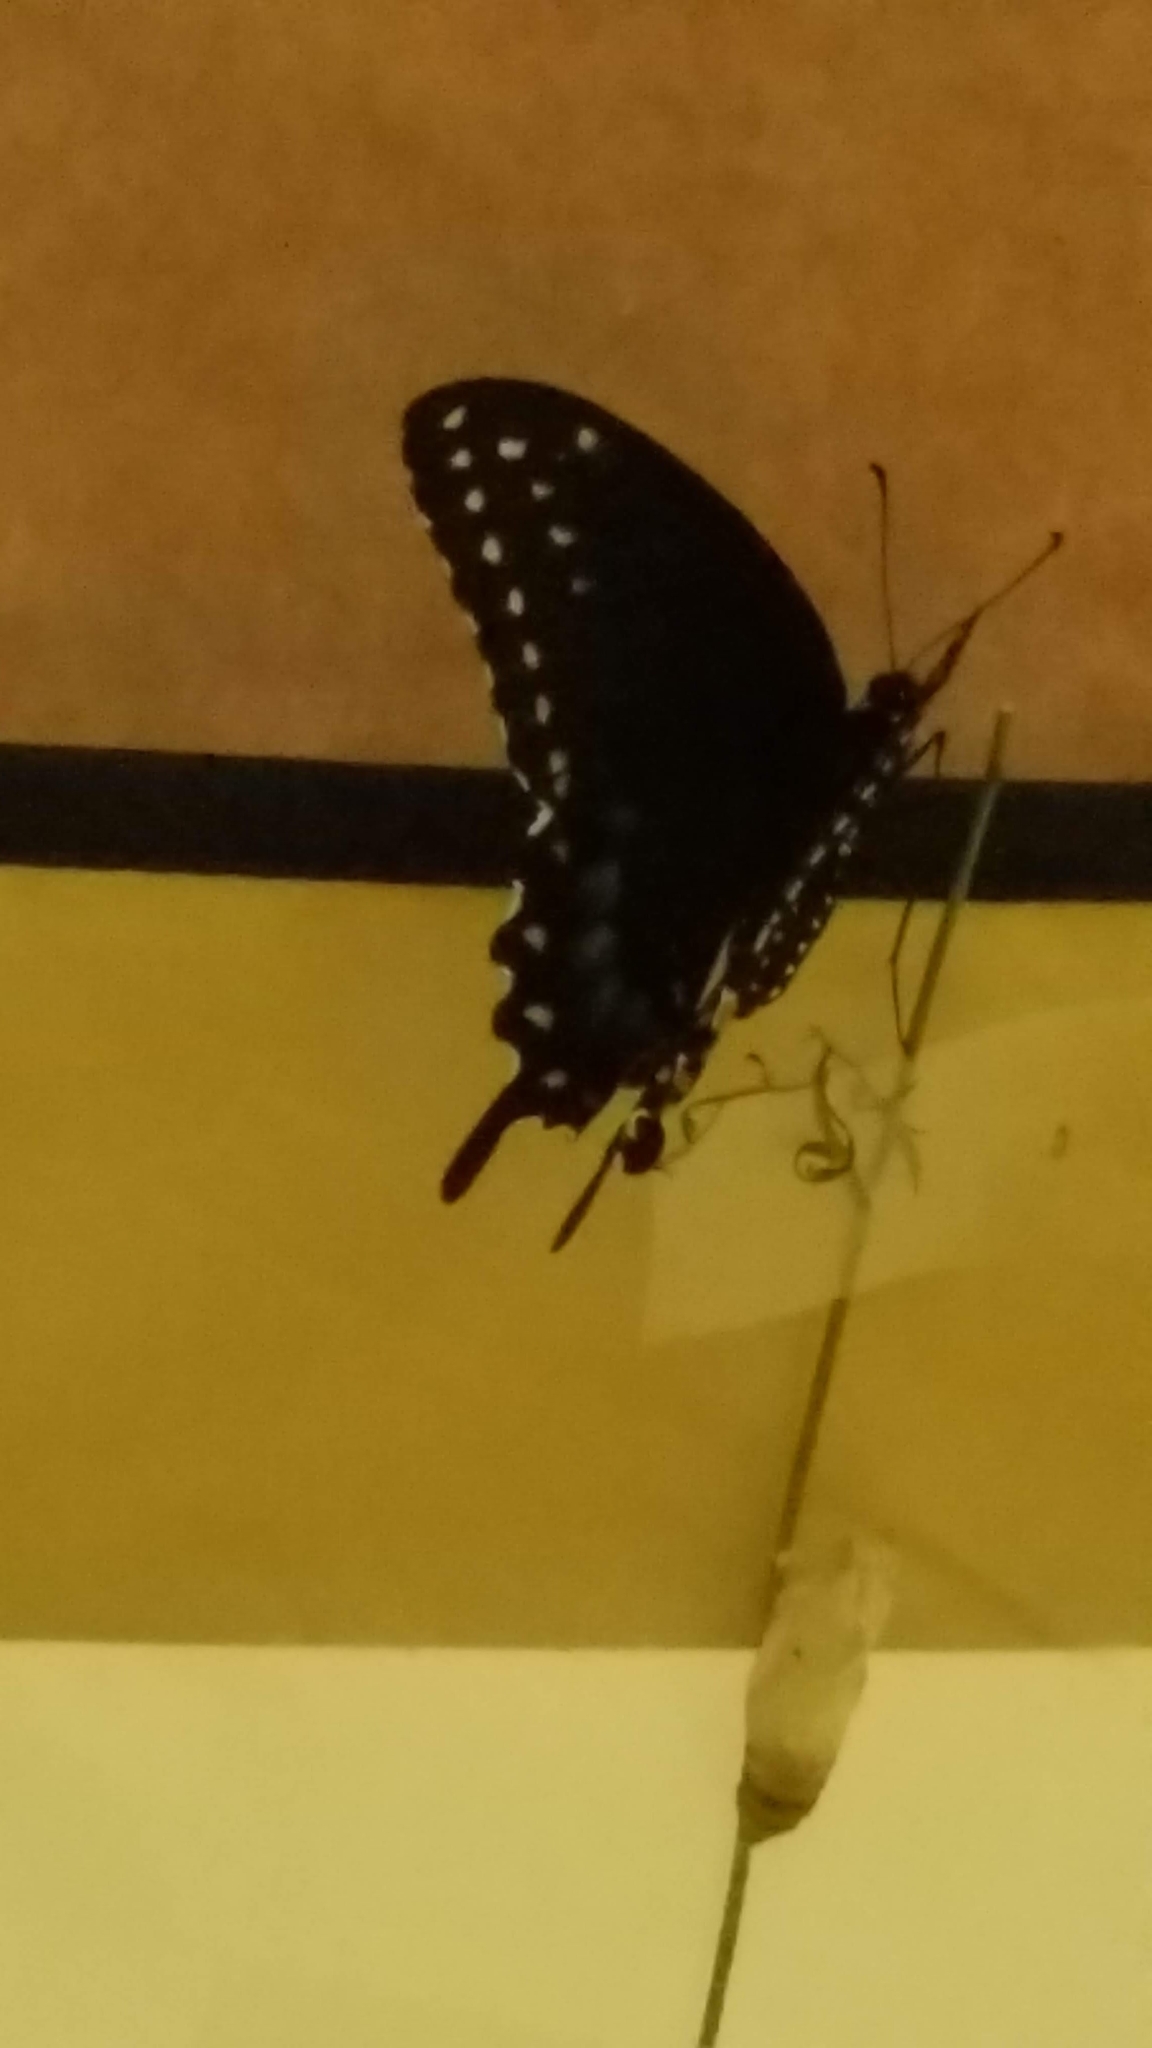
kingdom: Animalia
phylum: Arthropoda
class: Insecta
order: Lepidoptera
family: Papilionidae
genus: Papilio
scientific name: Papilio polyxenes
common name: Black swallowtail
